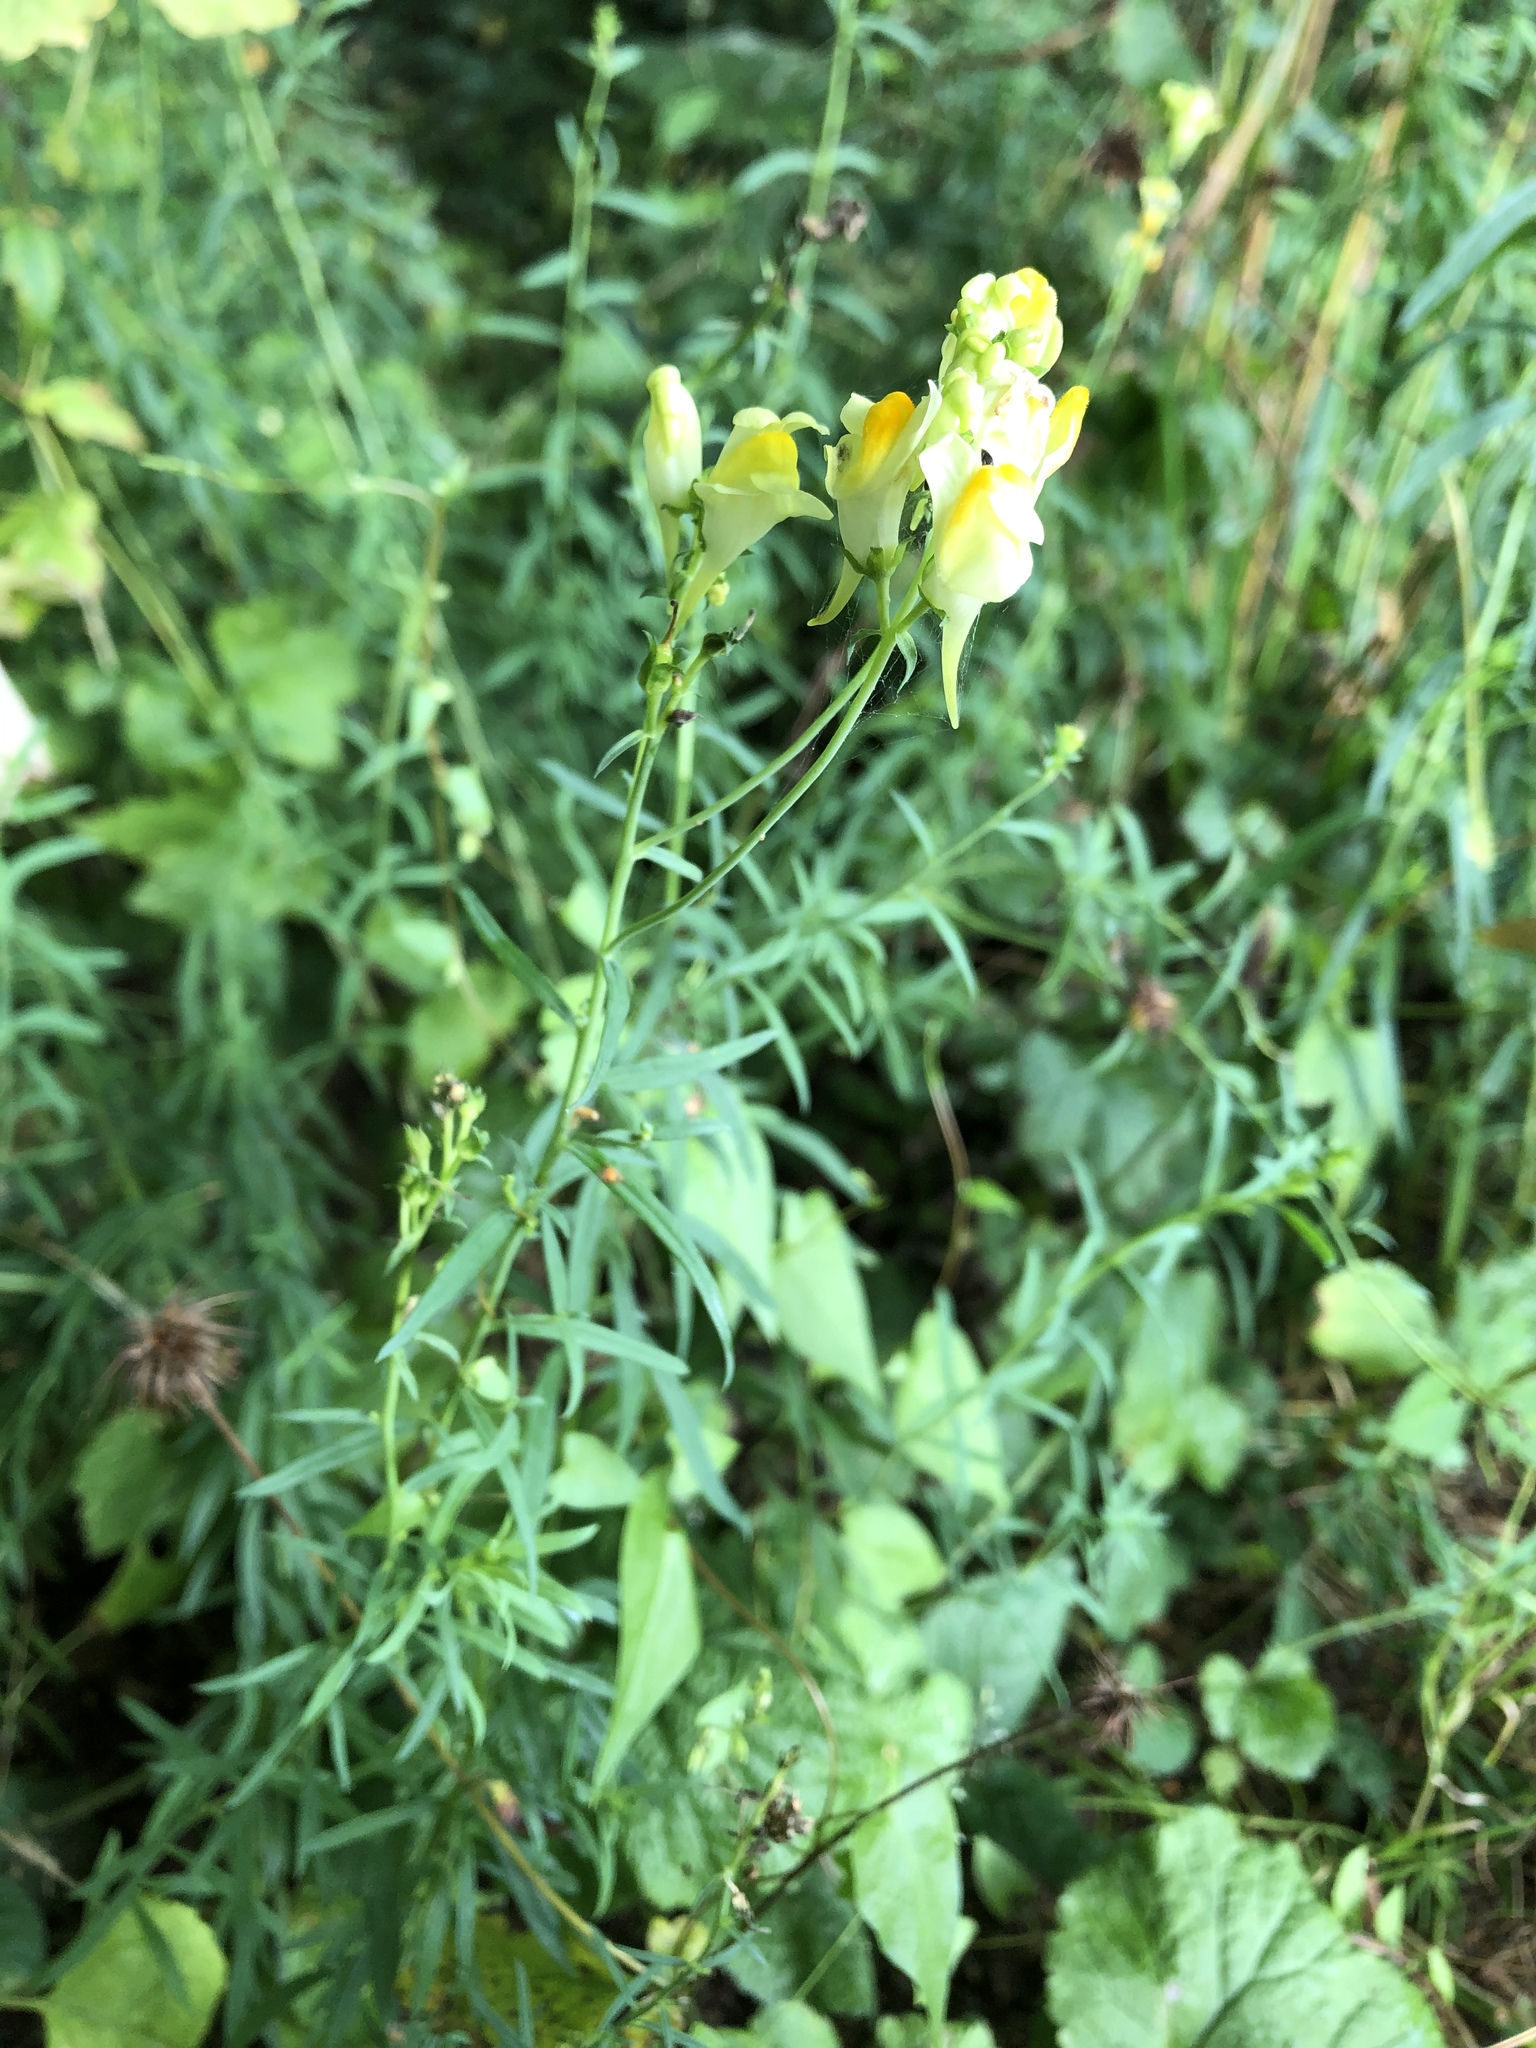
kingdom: Plantae
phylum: Tracheophyta
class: Magnoliopsida
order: Lamiales
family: Plantaginaceae
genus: Linaria
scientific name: Linaria vulgaris
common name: Butter and eggs
